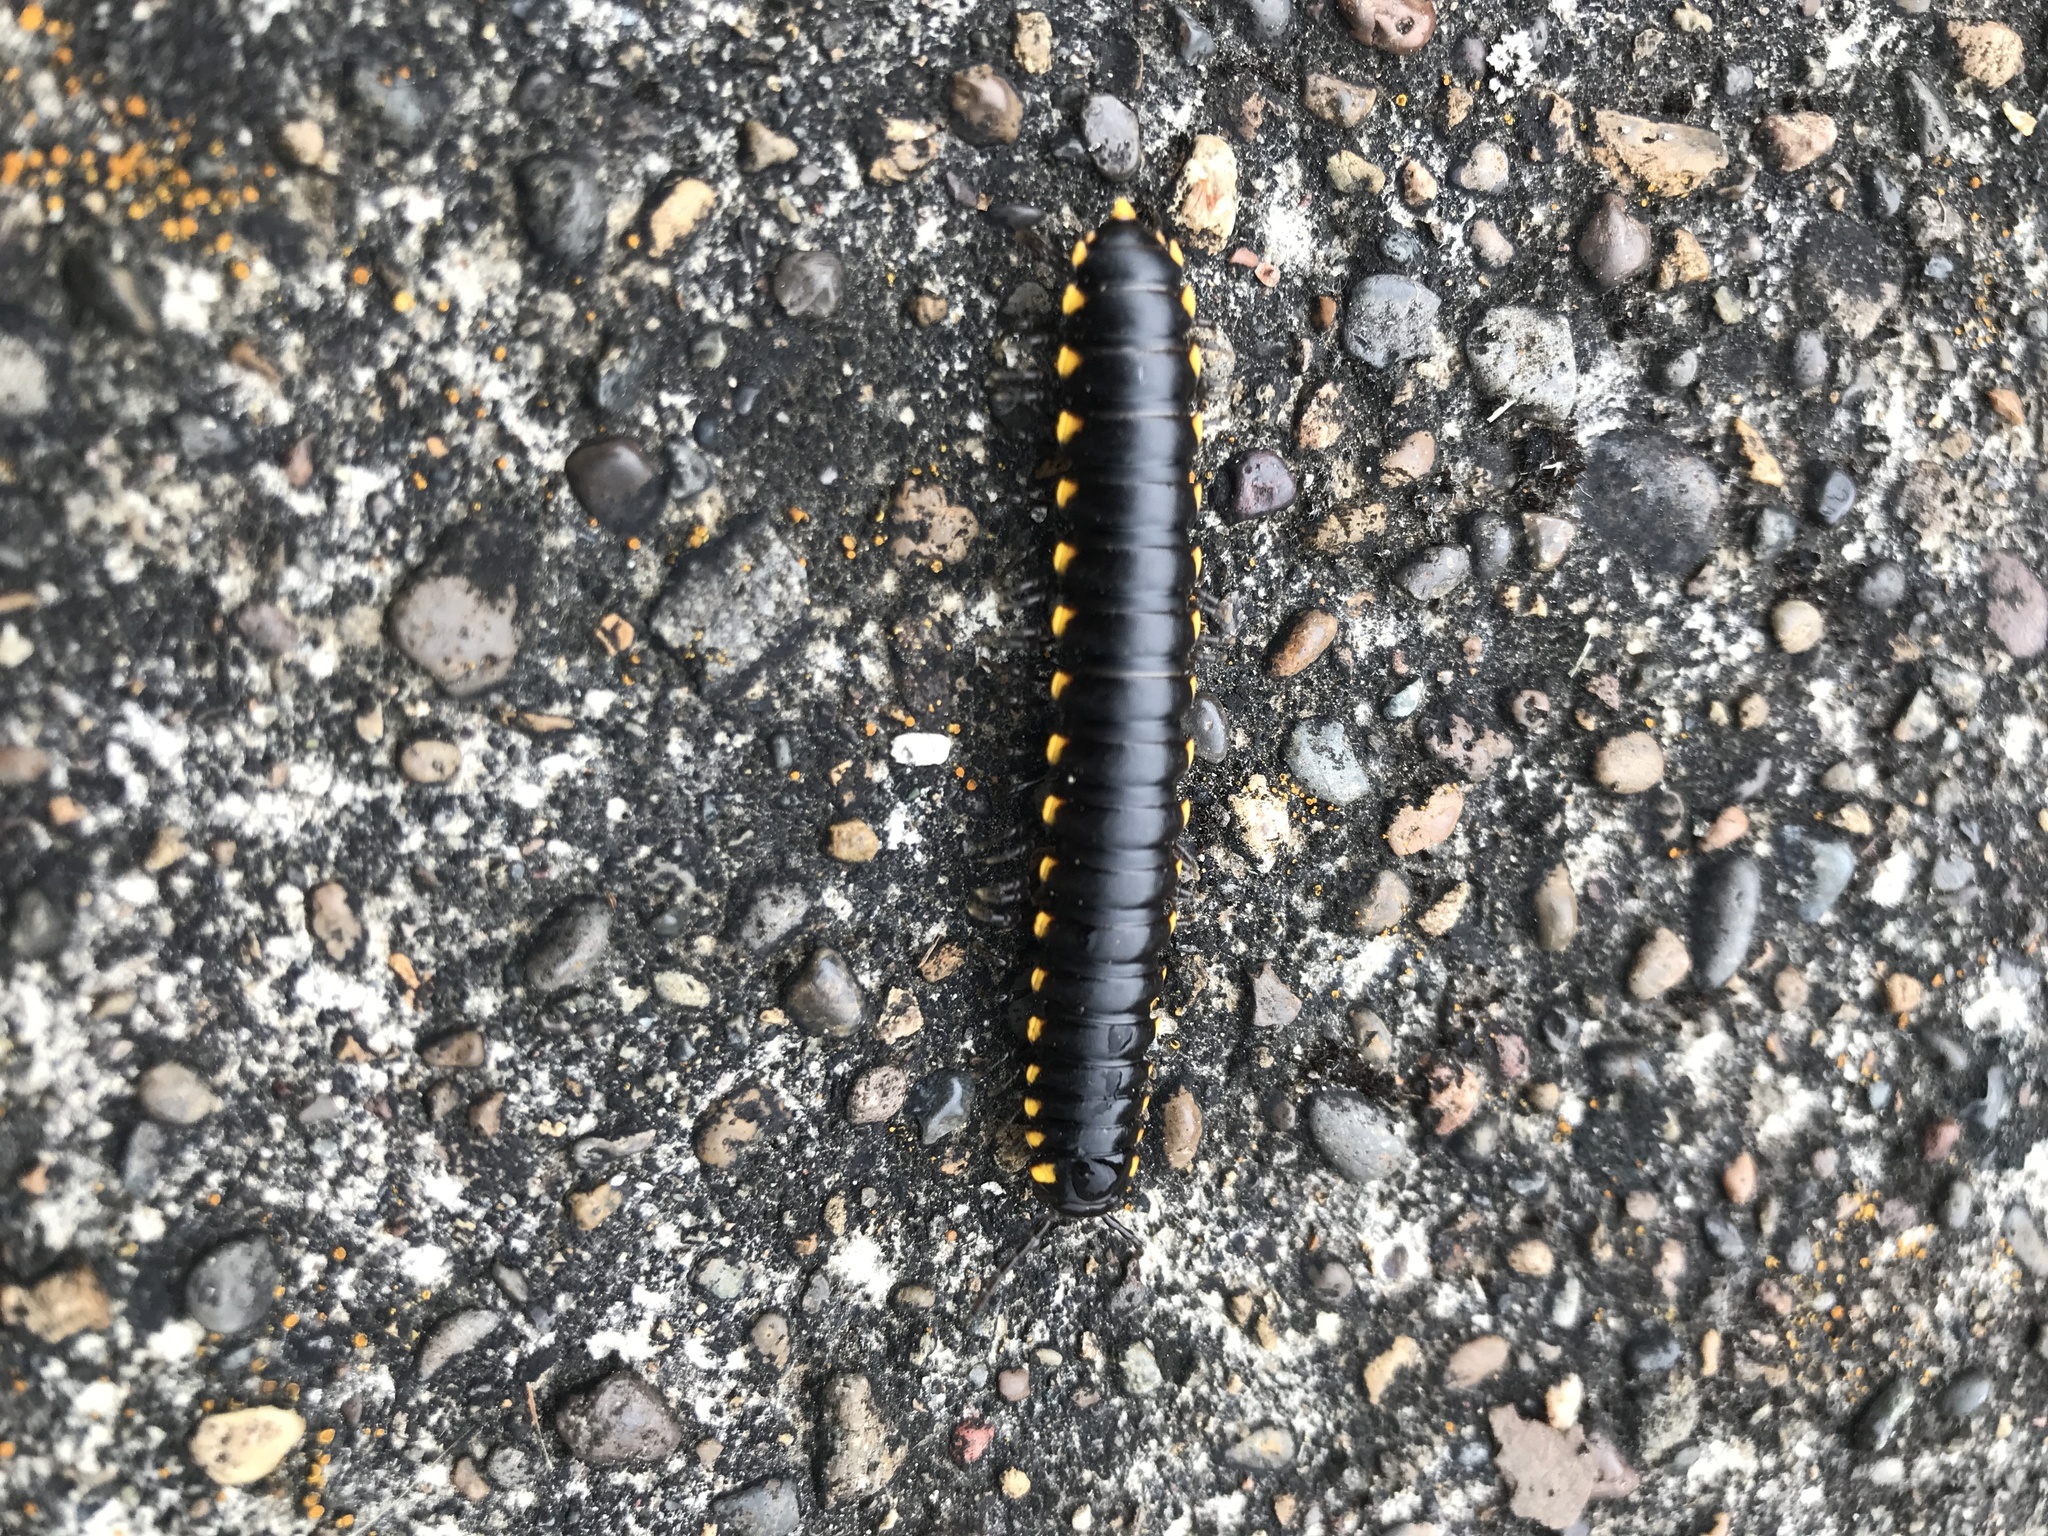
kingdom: Animalia
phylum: Arthropoda
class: Diplopoda
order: Polydesmida
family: Xystodesmidae
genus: Harpaphe
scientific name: Harpaphe haydeniana
